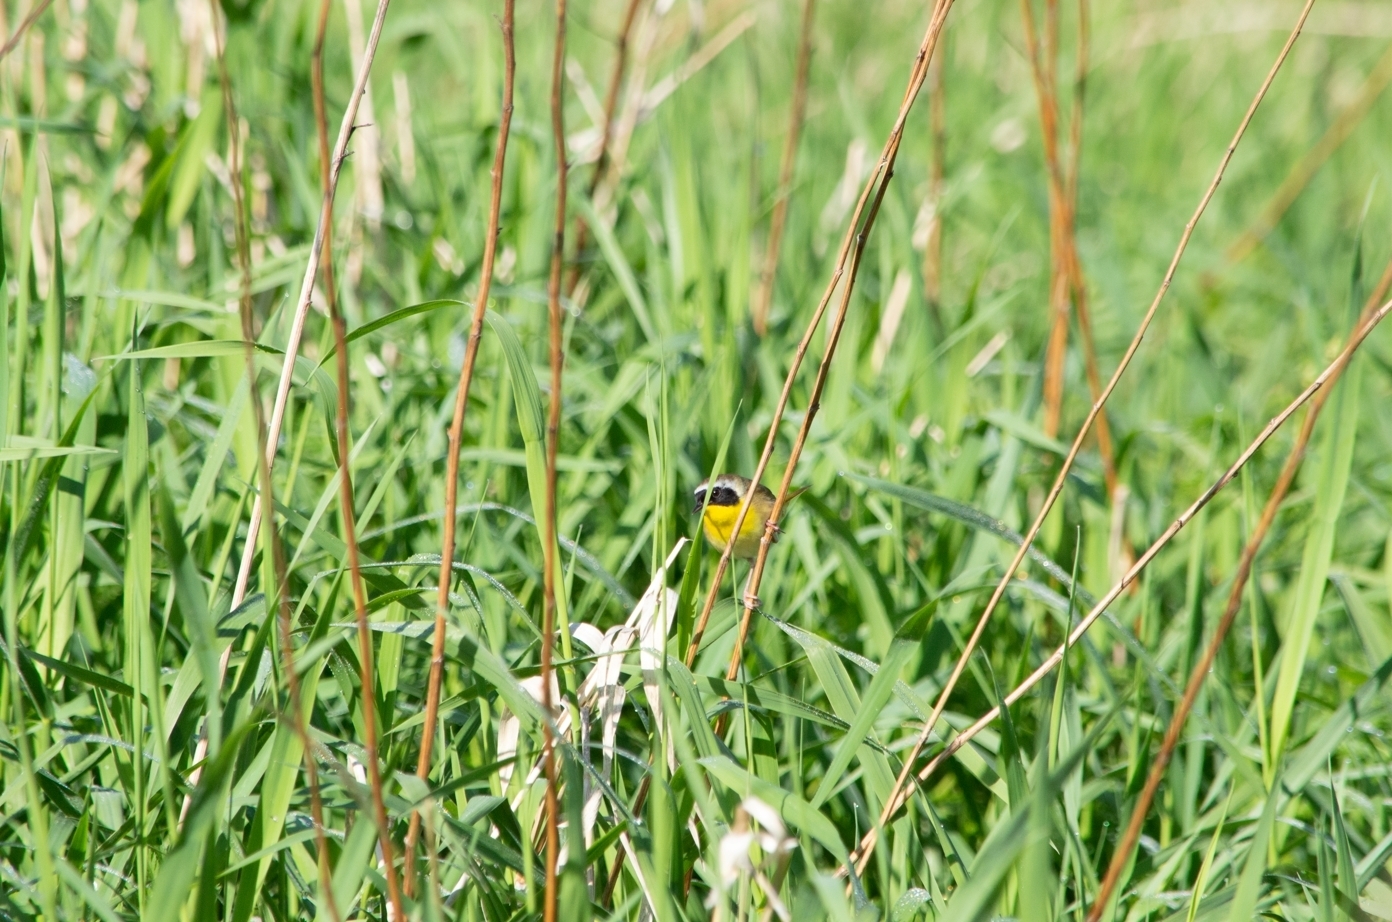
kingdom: Animalia
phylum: Chordata
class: Aves
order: Passeriformes
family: Parulidae
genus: Geothlypis
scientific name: Geothlypis trichas
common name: Common yellowthroat
